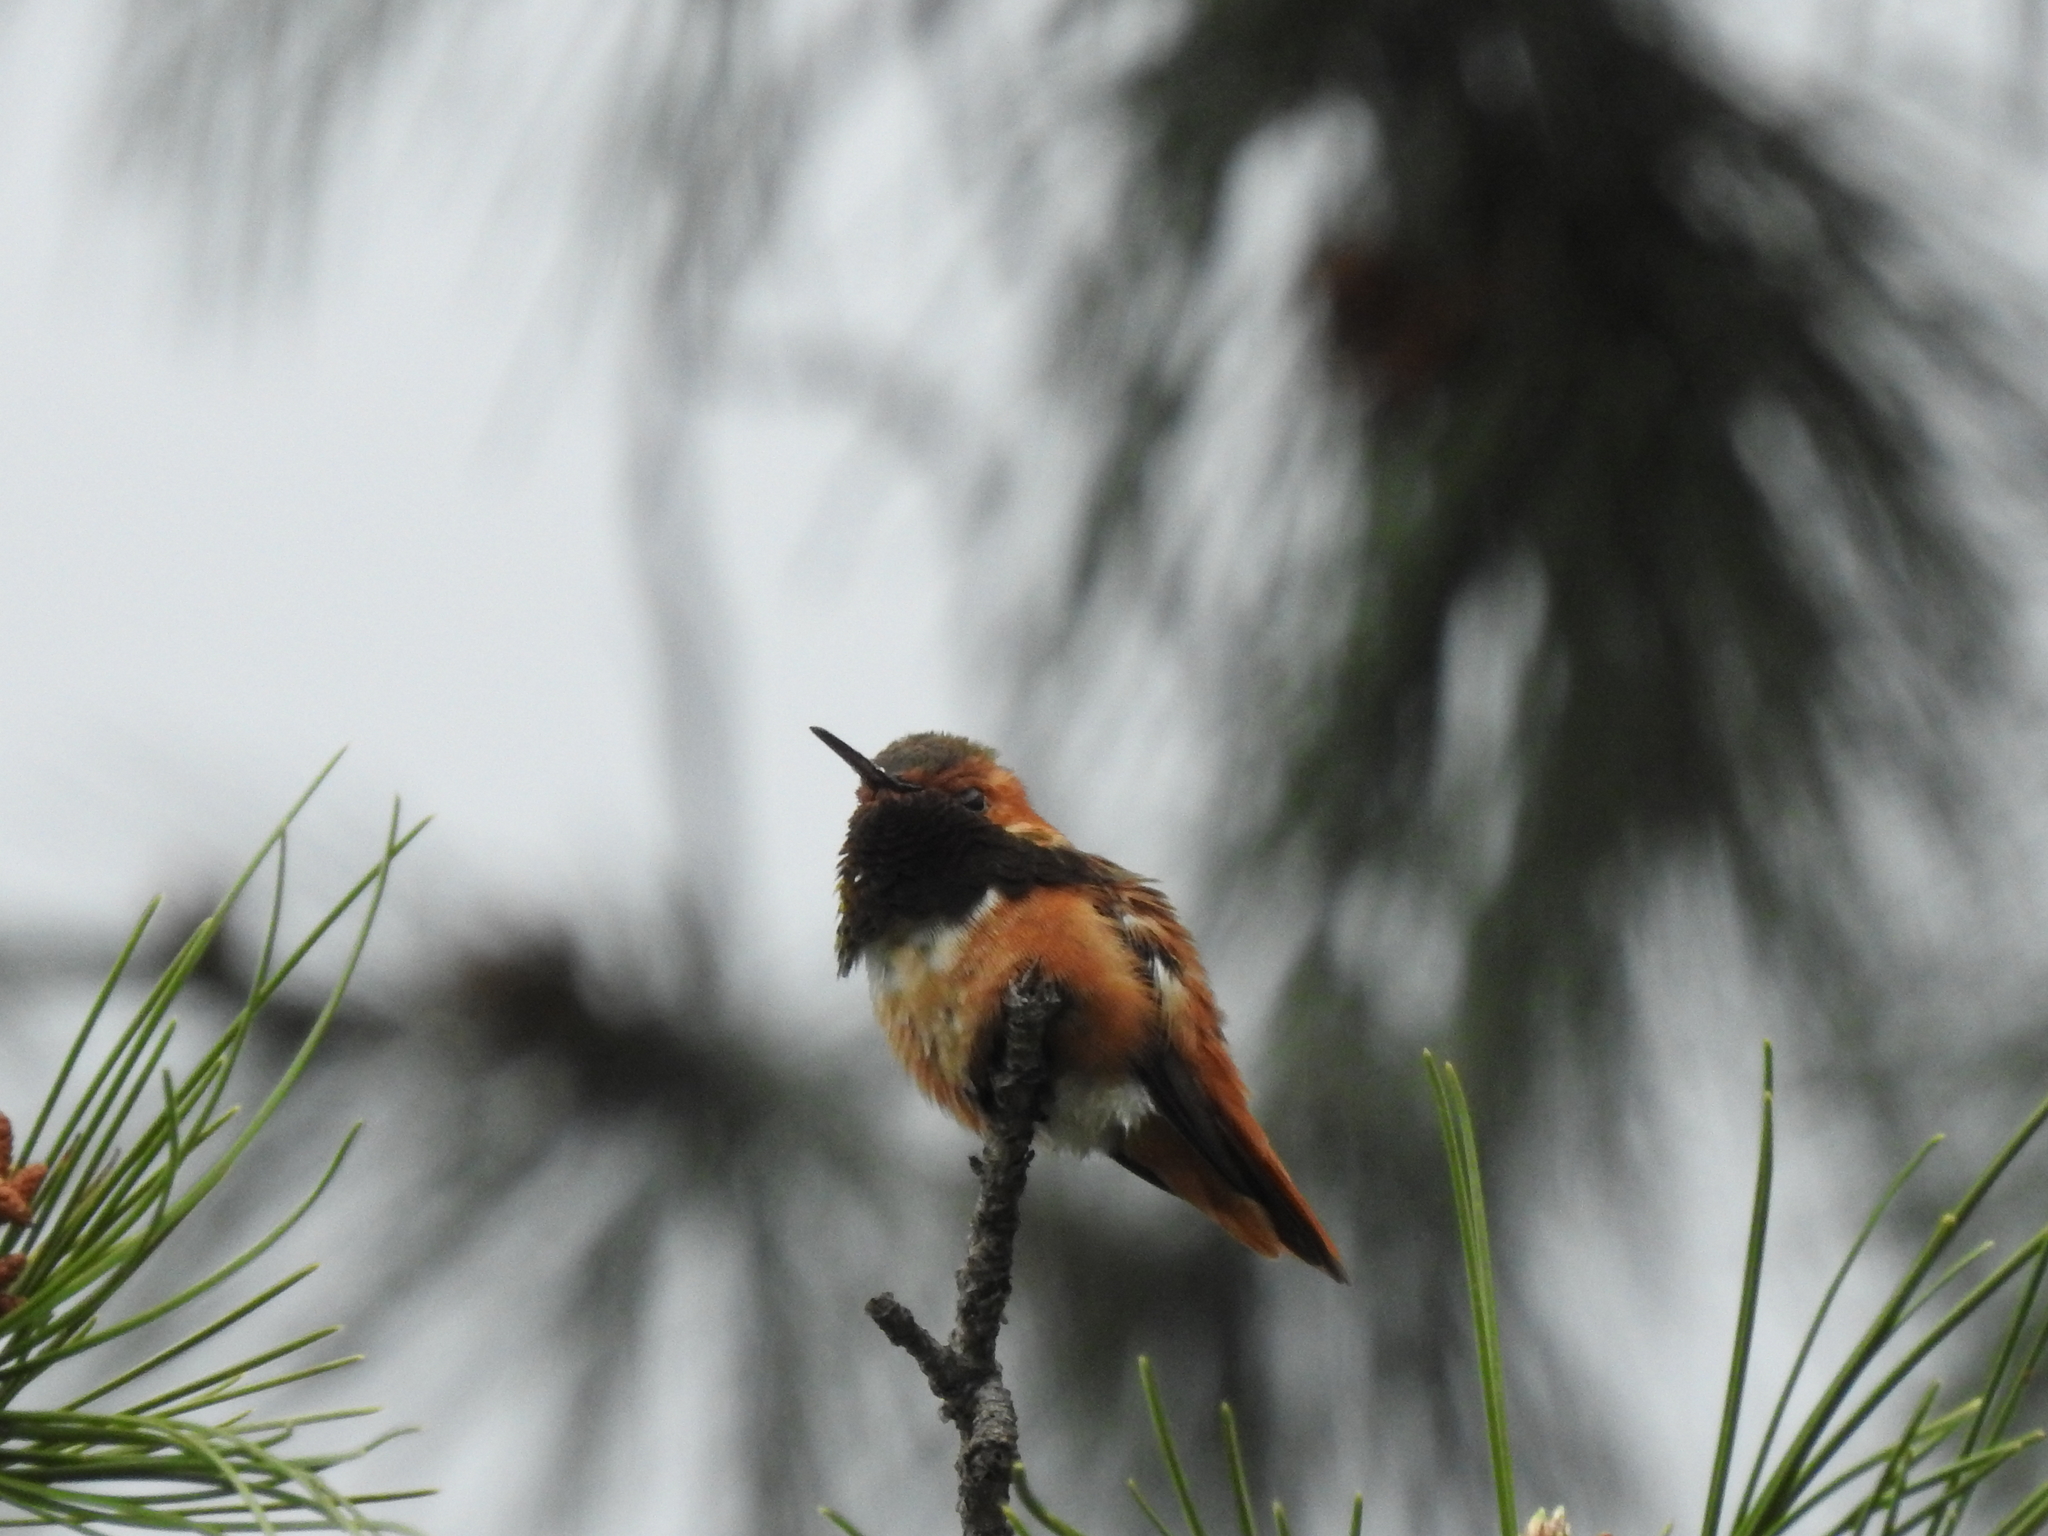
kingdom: Animalia
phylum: Chordata
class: Aves
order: Apodiformes
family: Trochilidae
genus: Selasphorus
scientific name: Selasphorus sasin
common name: Allen's hummingbird
